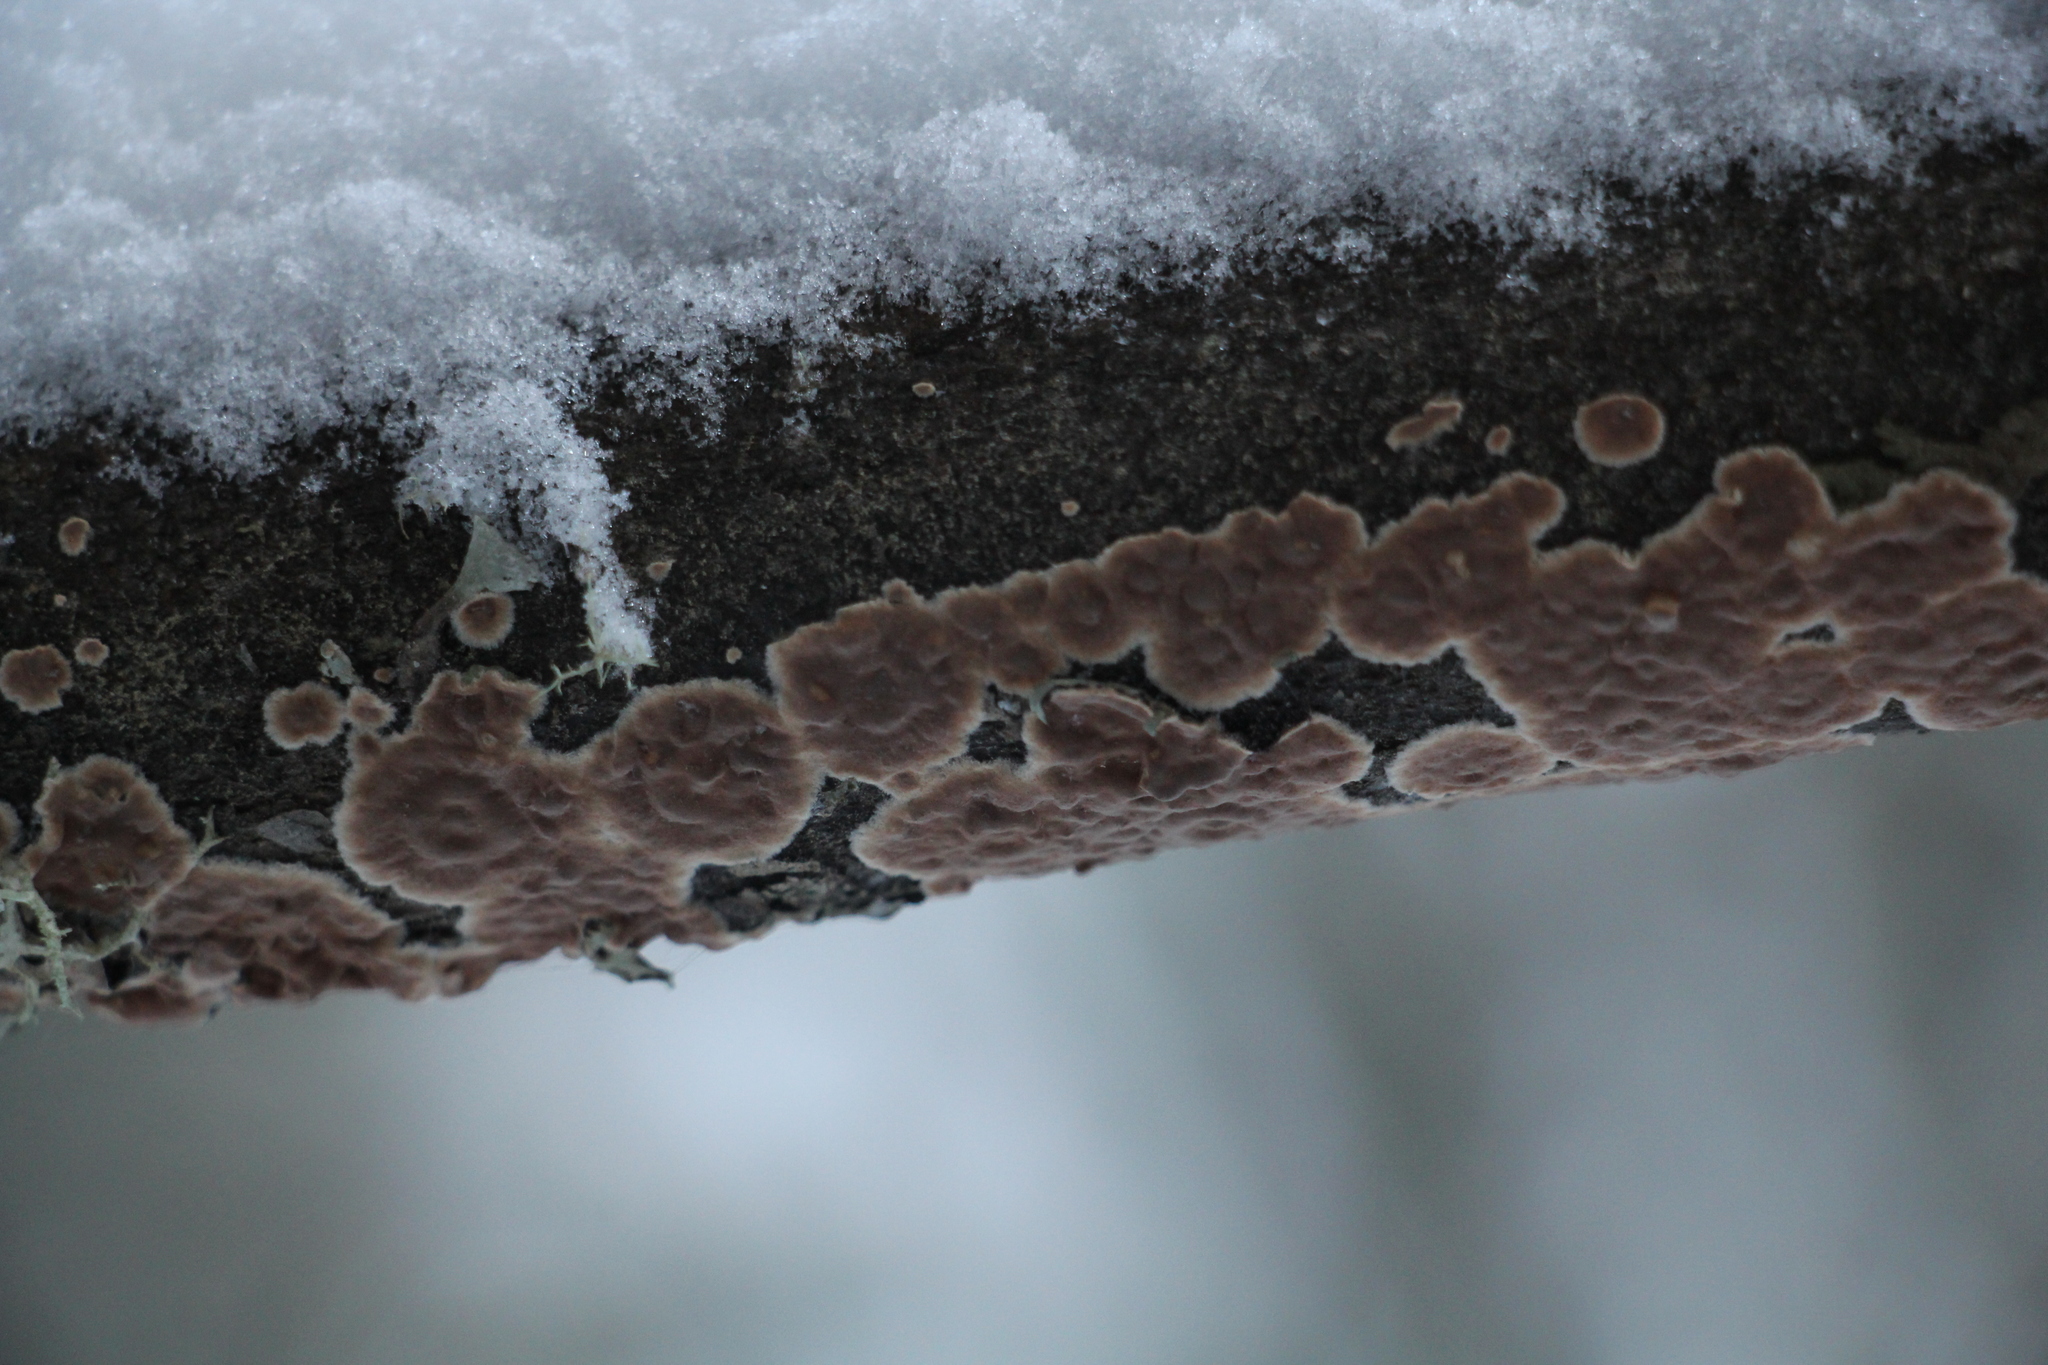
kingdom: Fungi
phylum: Basidiomycota
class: Agaricomycetes
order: Agaricales
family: Physalacriaceae
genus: Cylindrobasidium
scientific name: Cylindrobasidium evolvens
